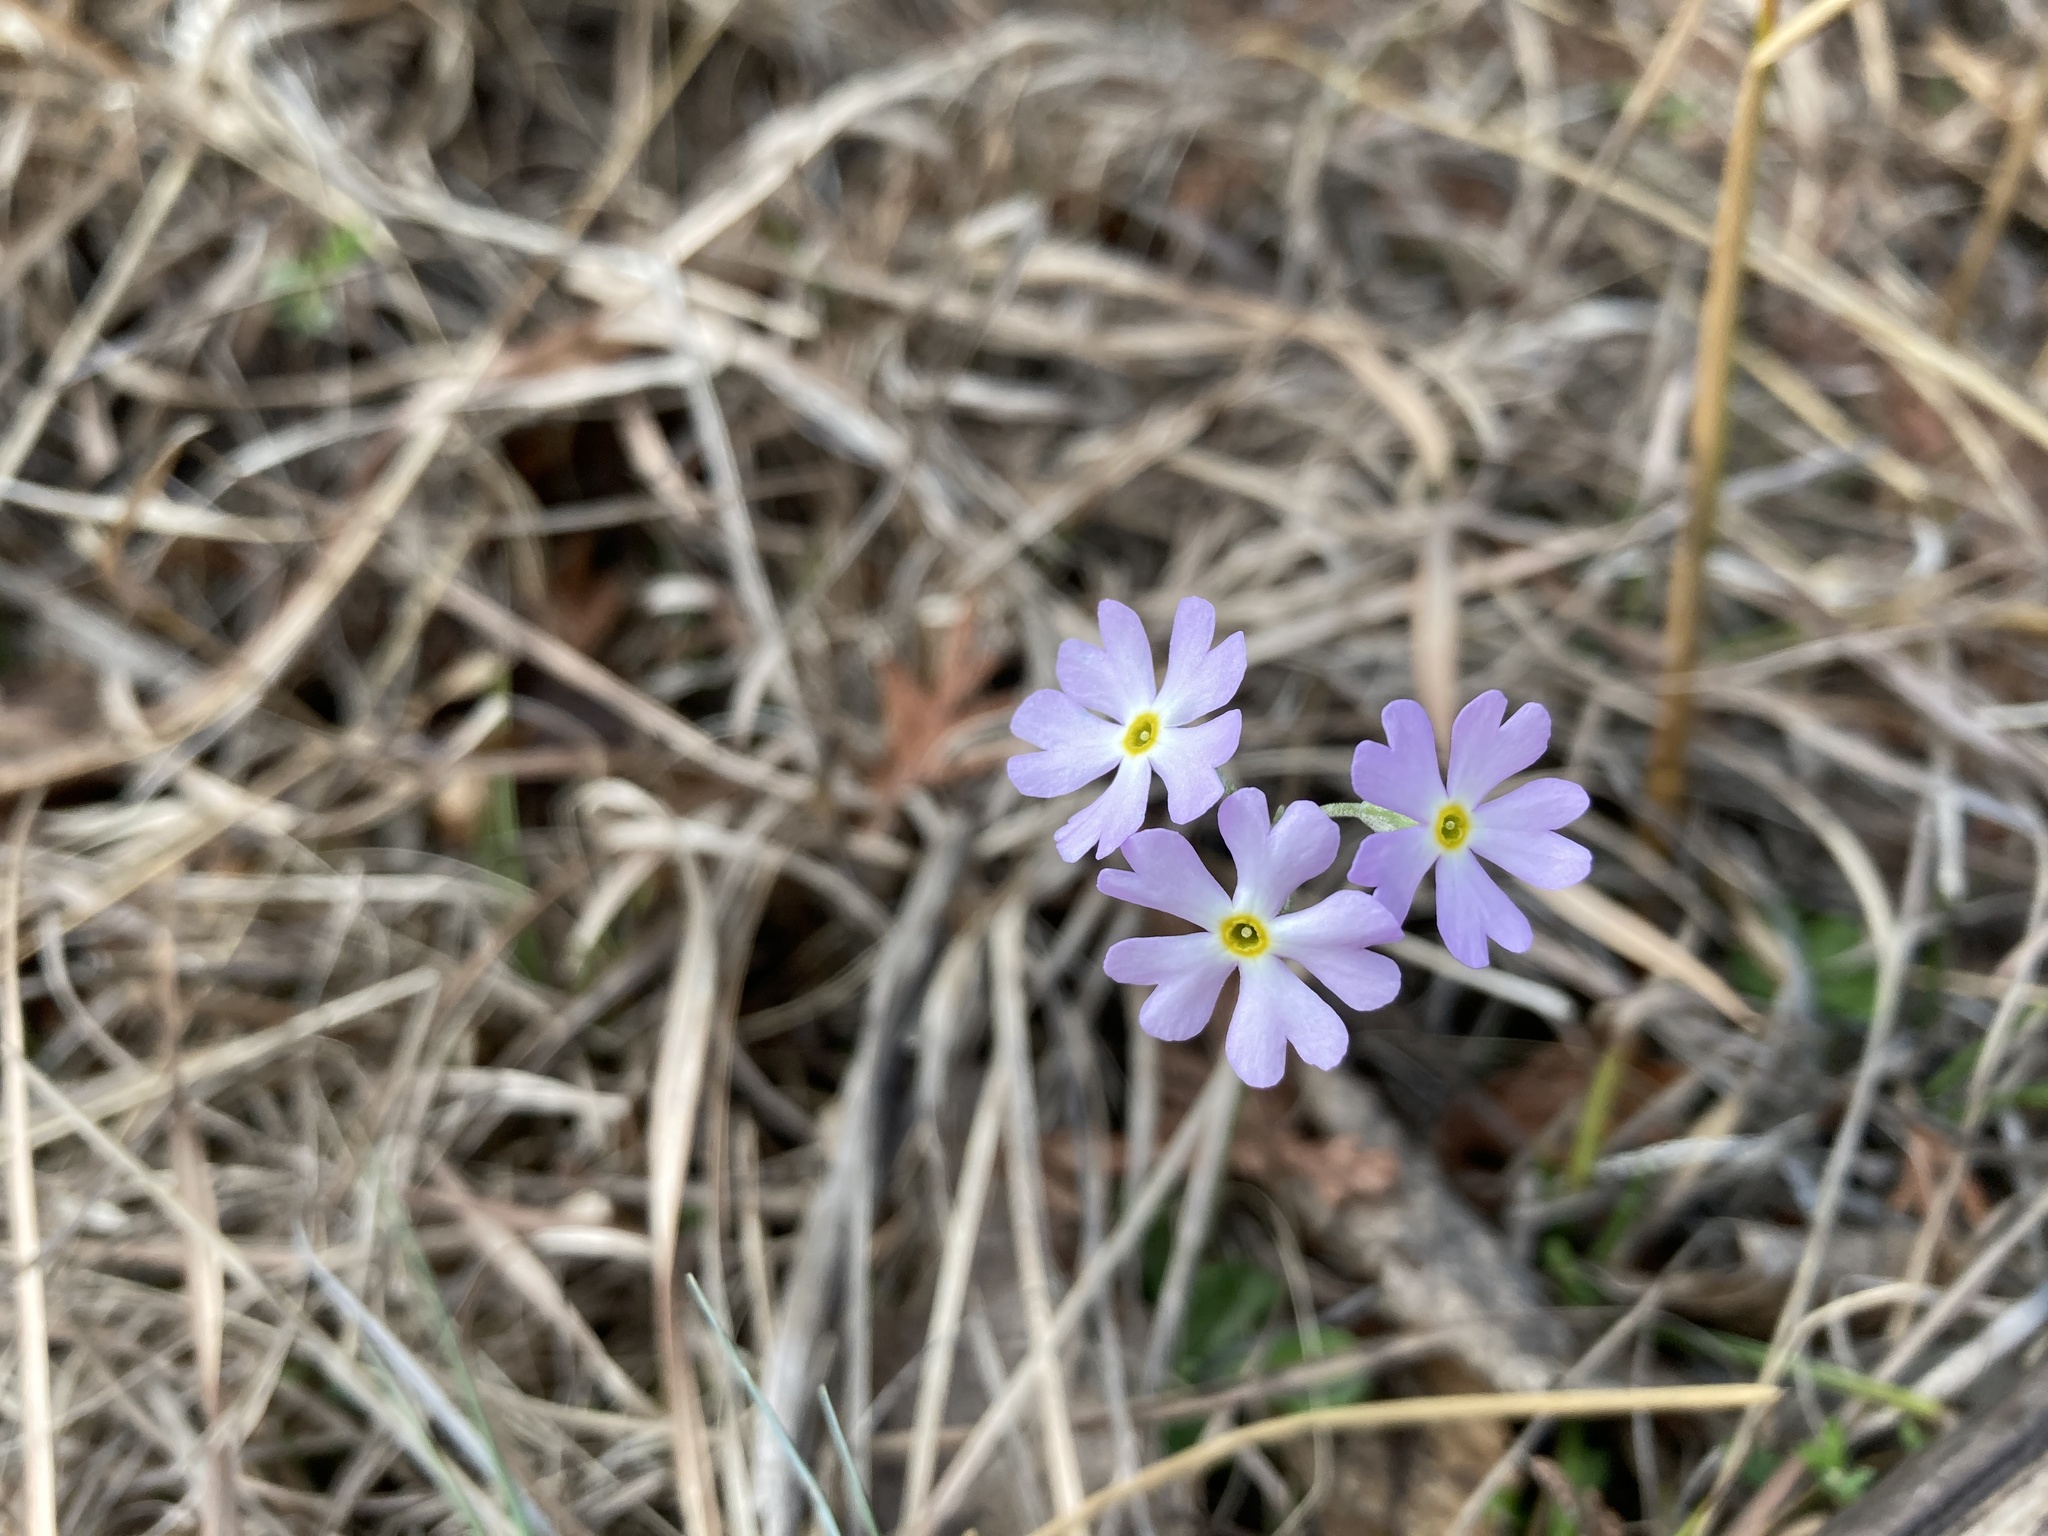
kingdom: Plantae
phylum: Tracheophyta
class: Magnoliopsida
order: Ericales
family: Primulaceae
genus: Primula
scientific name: Primula mistassinica
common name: Bird's-eye primrose
